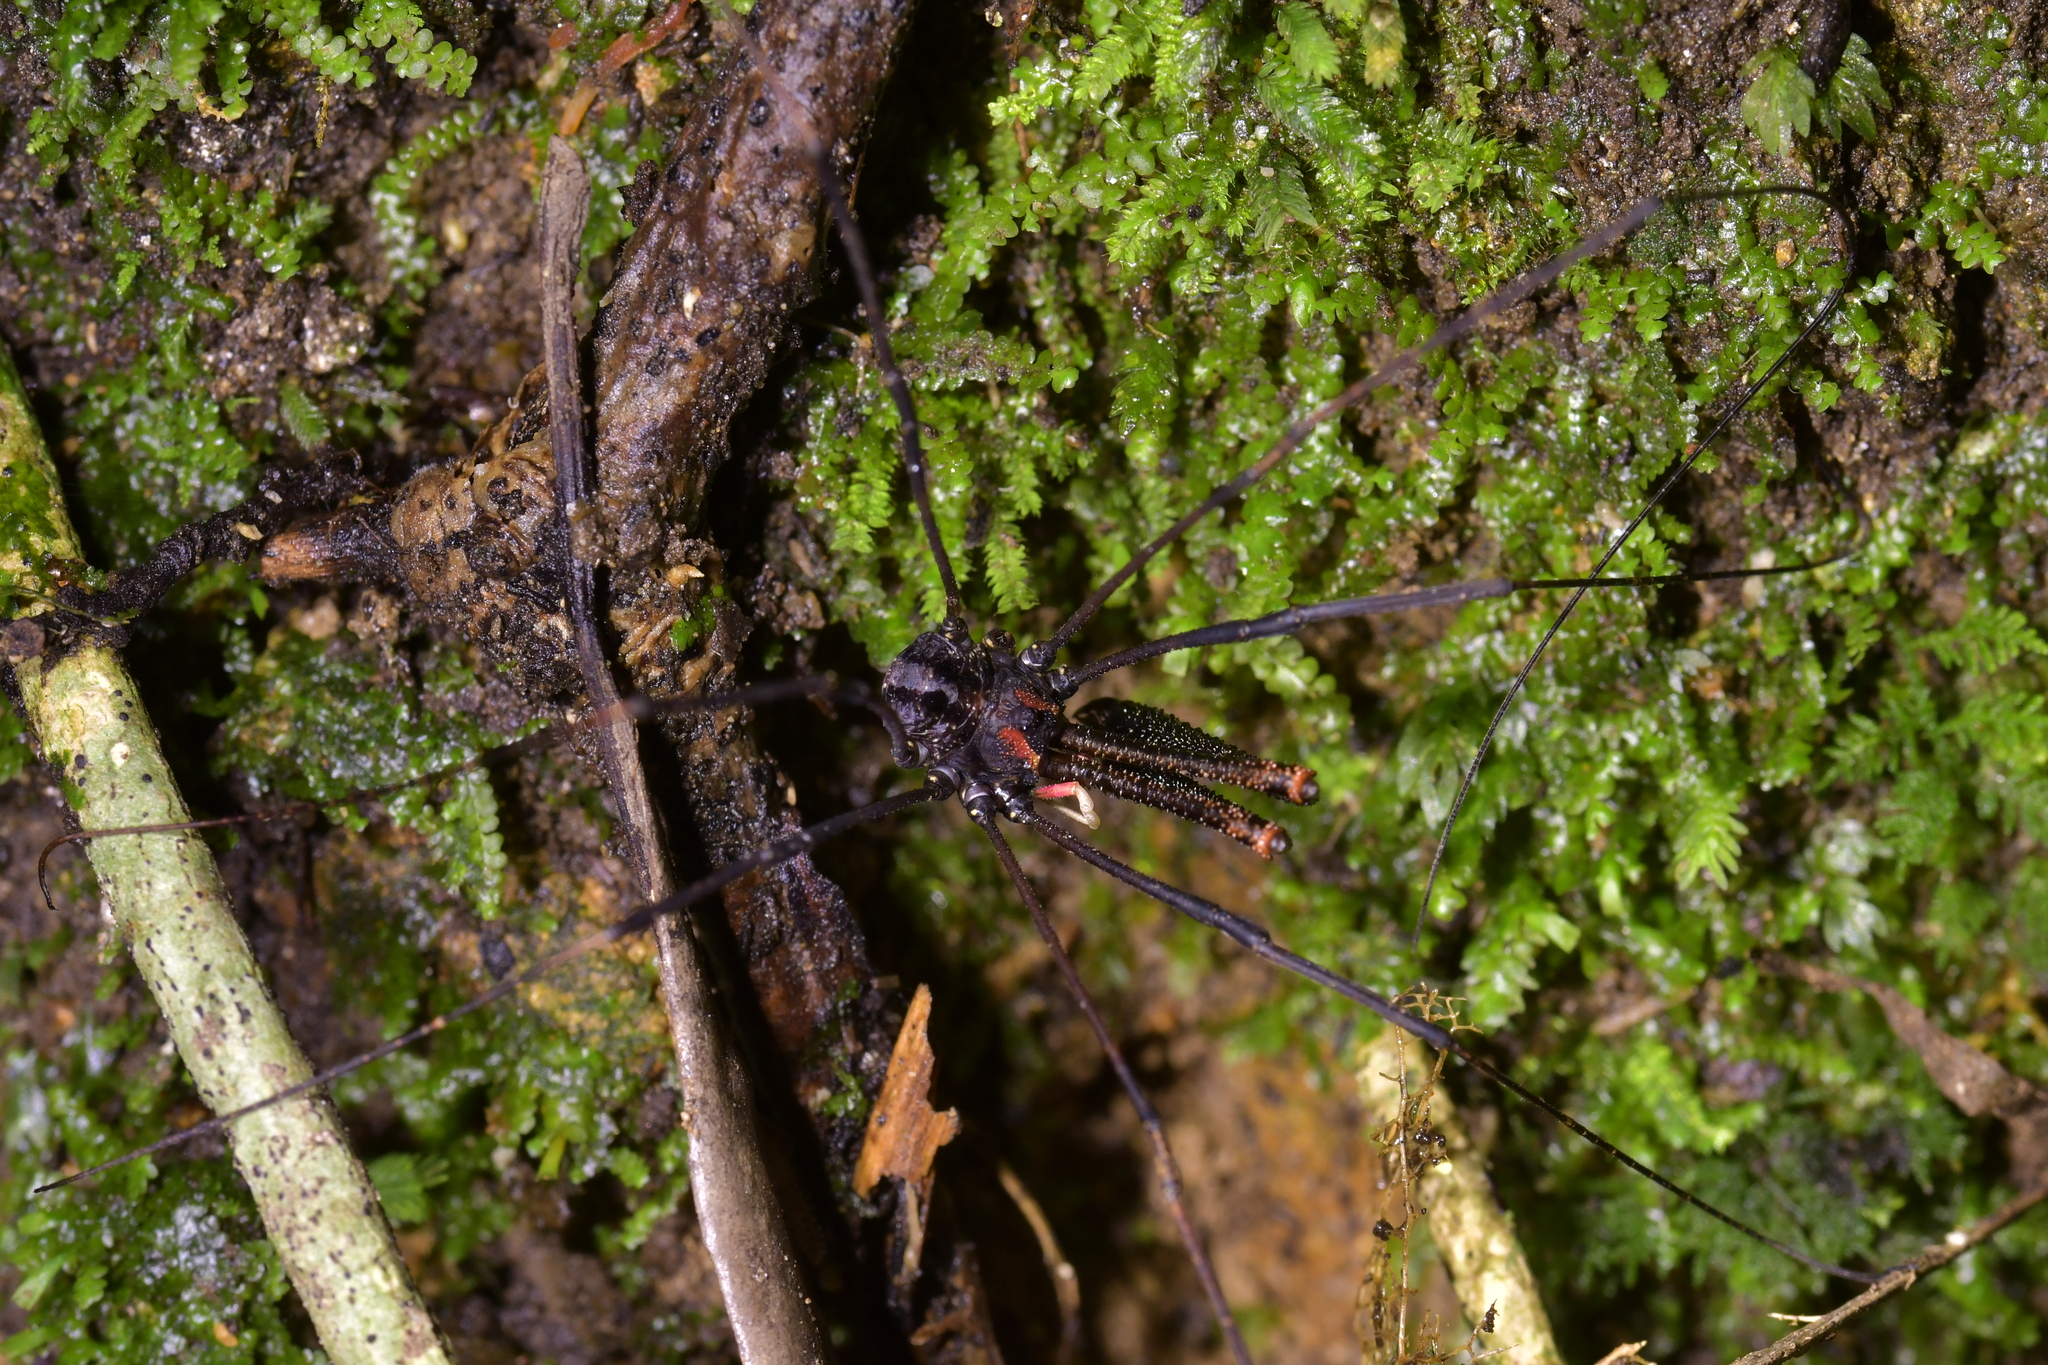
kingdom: Animalia
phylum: Arthropoda
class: Arachnida
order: Opiliones
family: Neopilionidae
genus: Forsteropsalis
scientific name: Forsteropsalis inconstans
